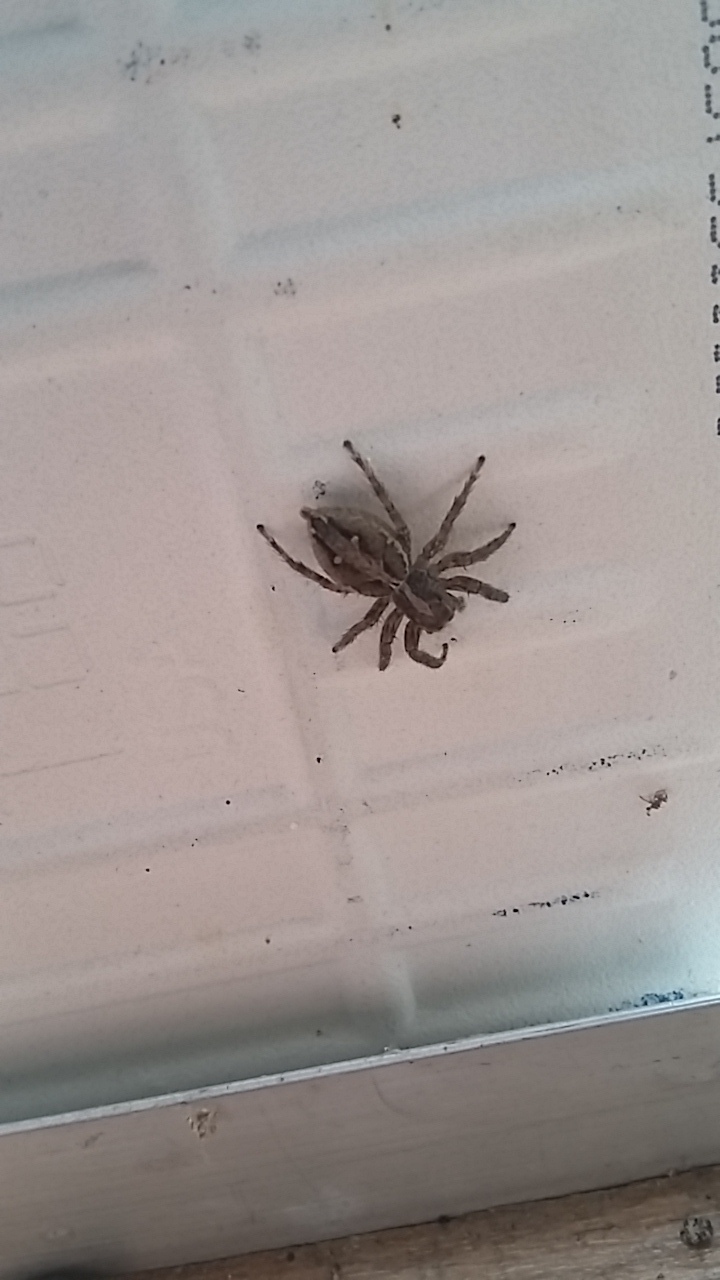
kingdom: Animalia
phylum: Arthropoda
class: Arachnida
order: Araneae
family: Salticidae
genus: Plexippus
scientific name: Plexippus paykulli
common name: Pantropical jumper
